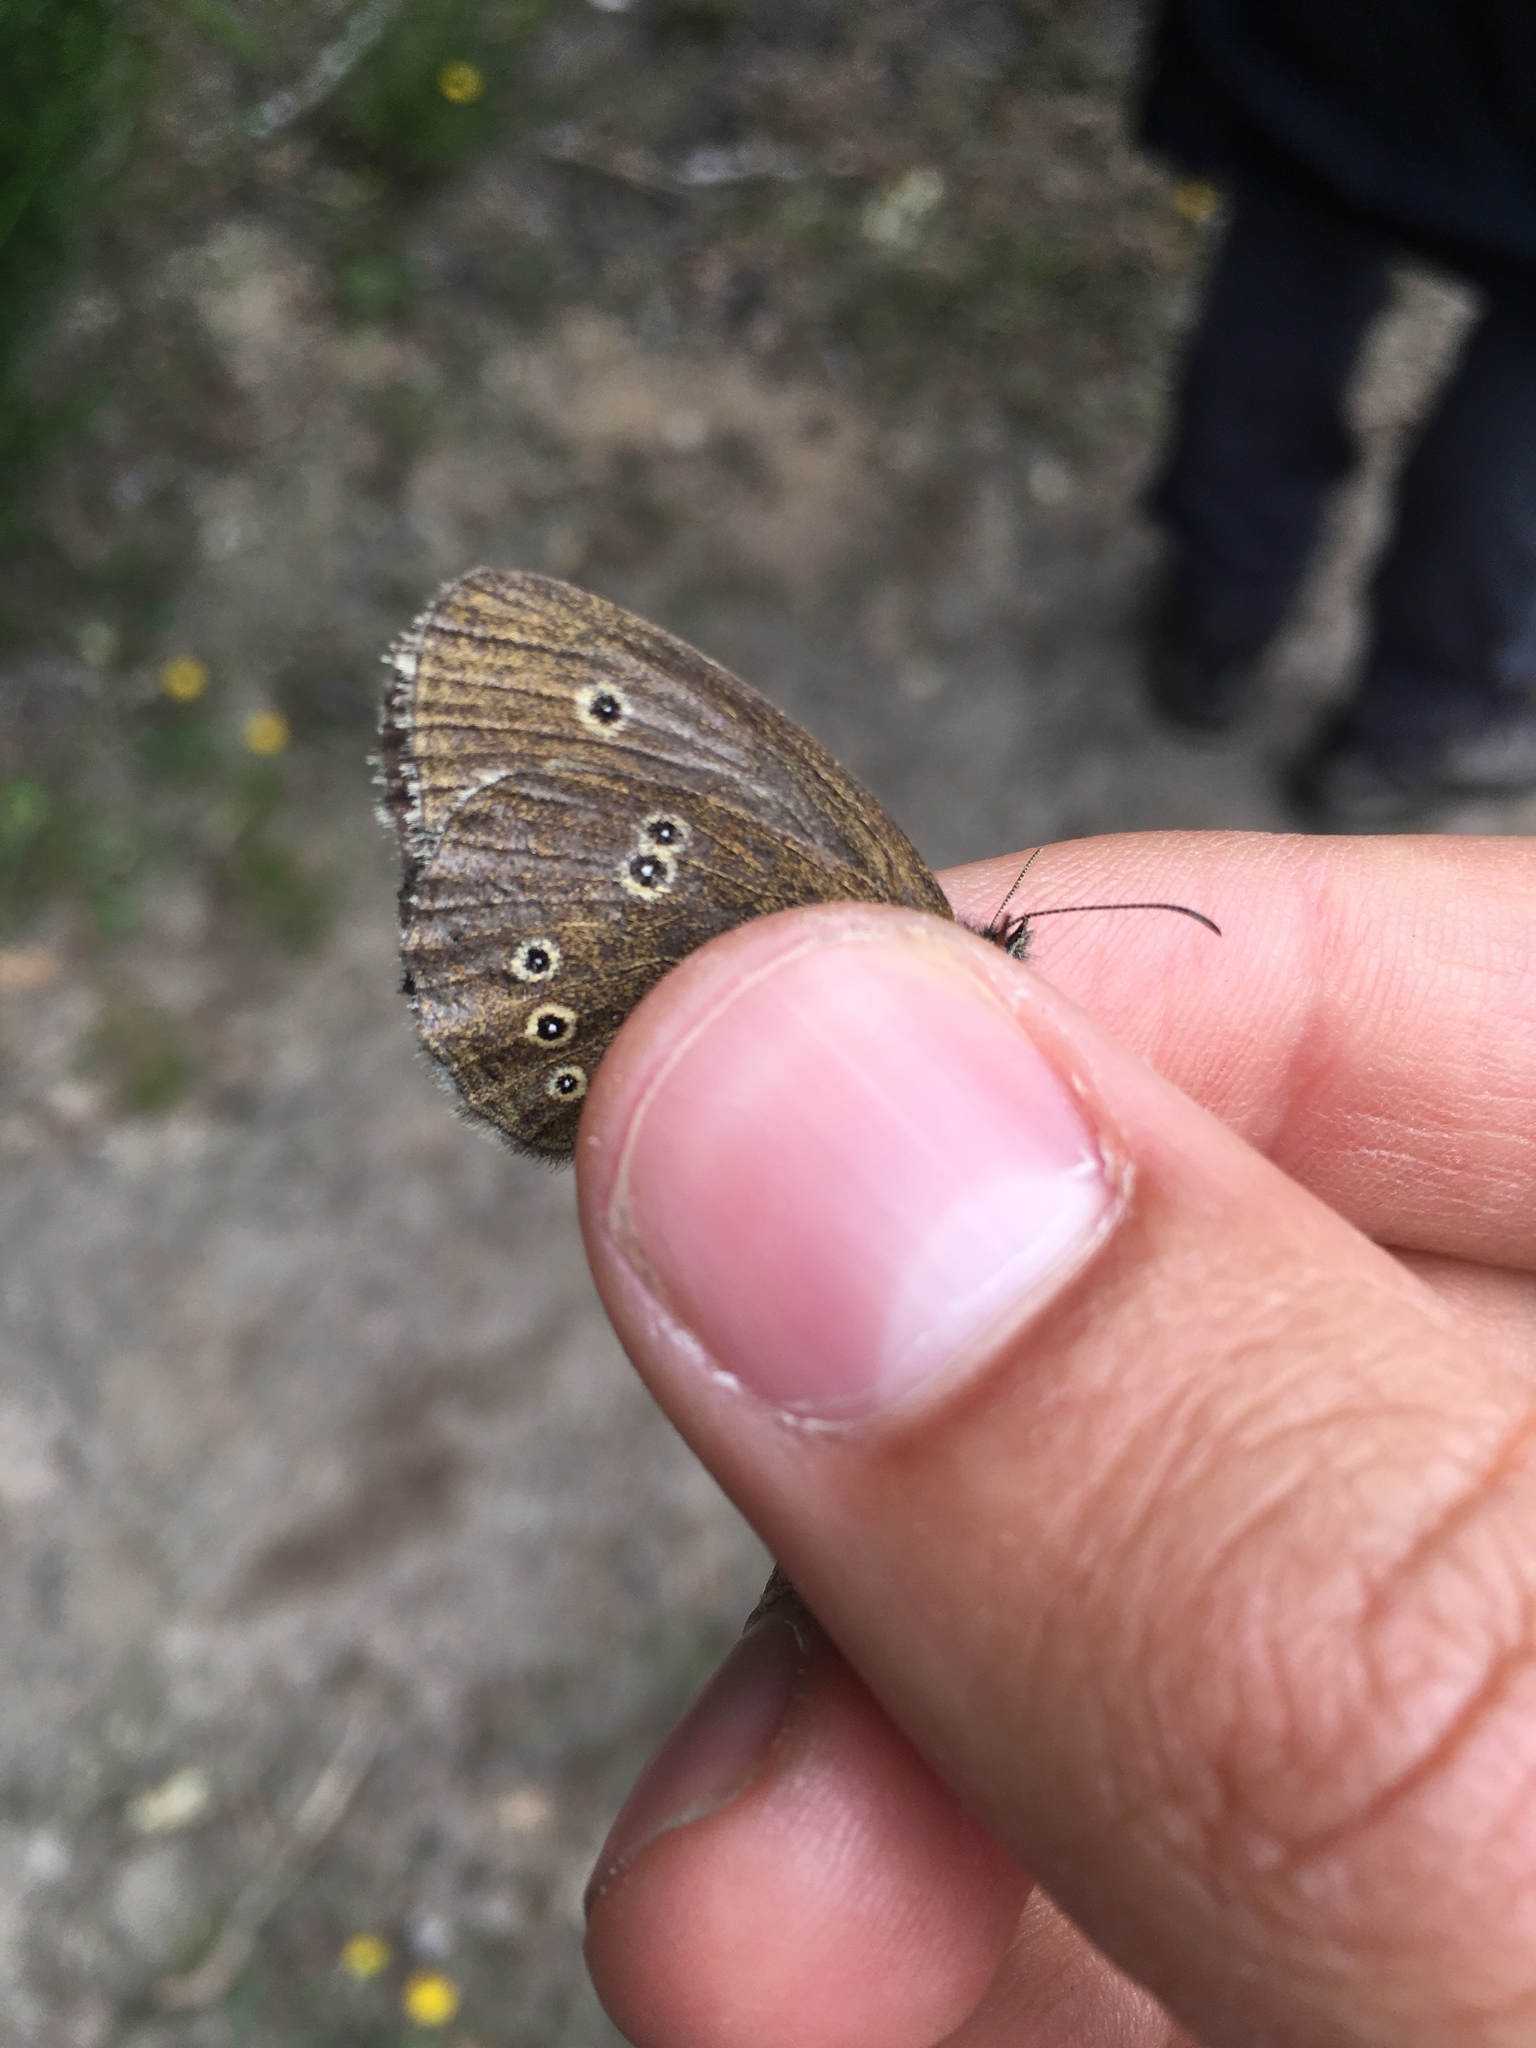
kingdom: Animalia
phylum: Arthropoda
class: Insecta
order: Lepidoptera
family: Nymphalidae
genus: Aphantopus
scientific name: Aphantopus hyperantus
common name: Ringlet
